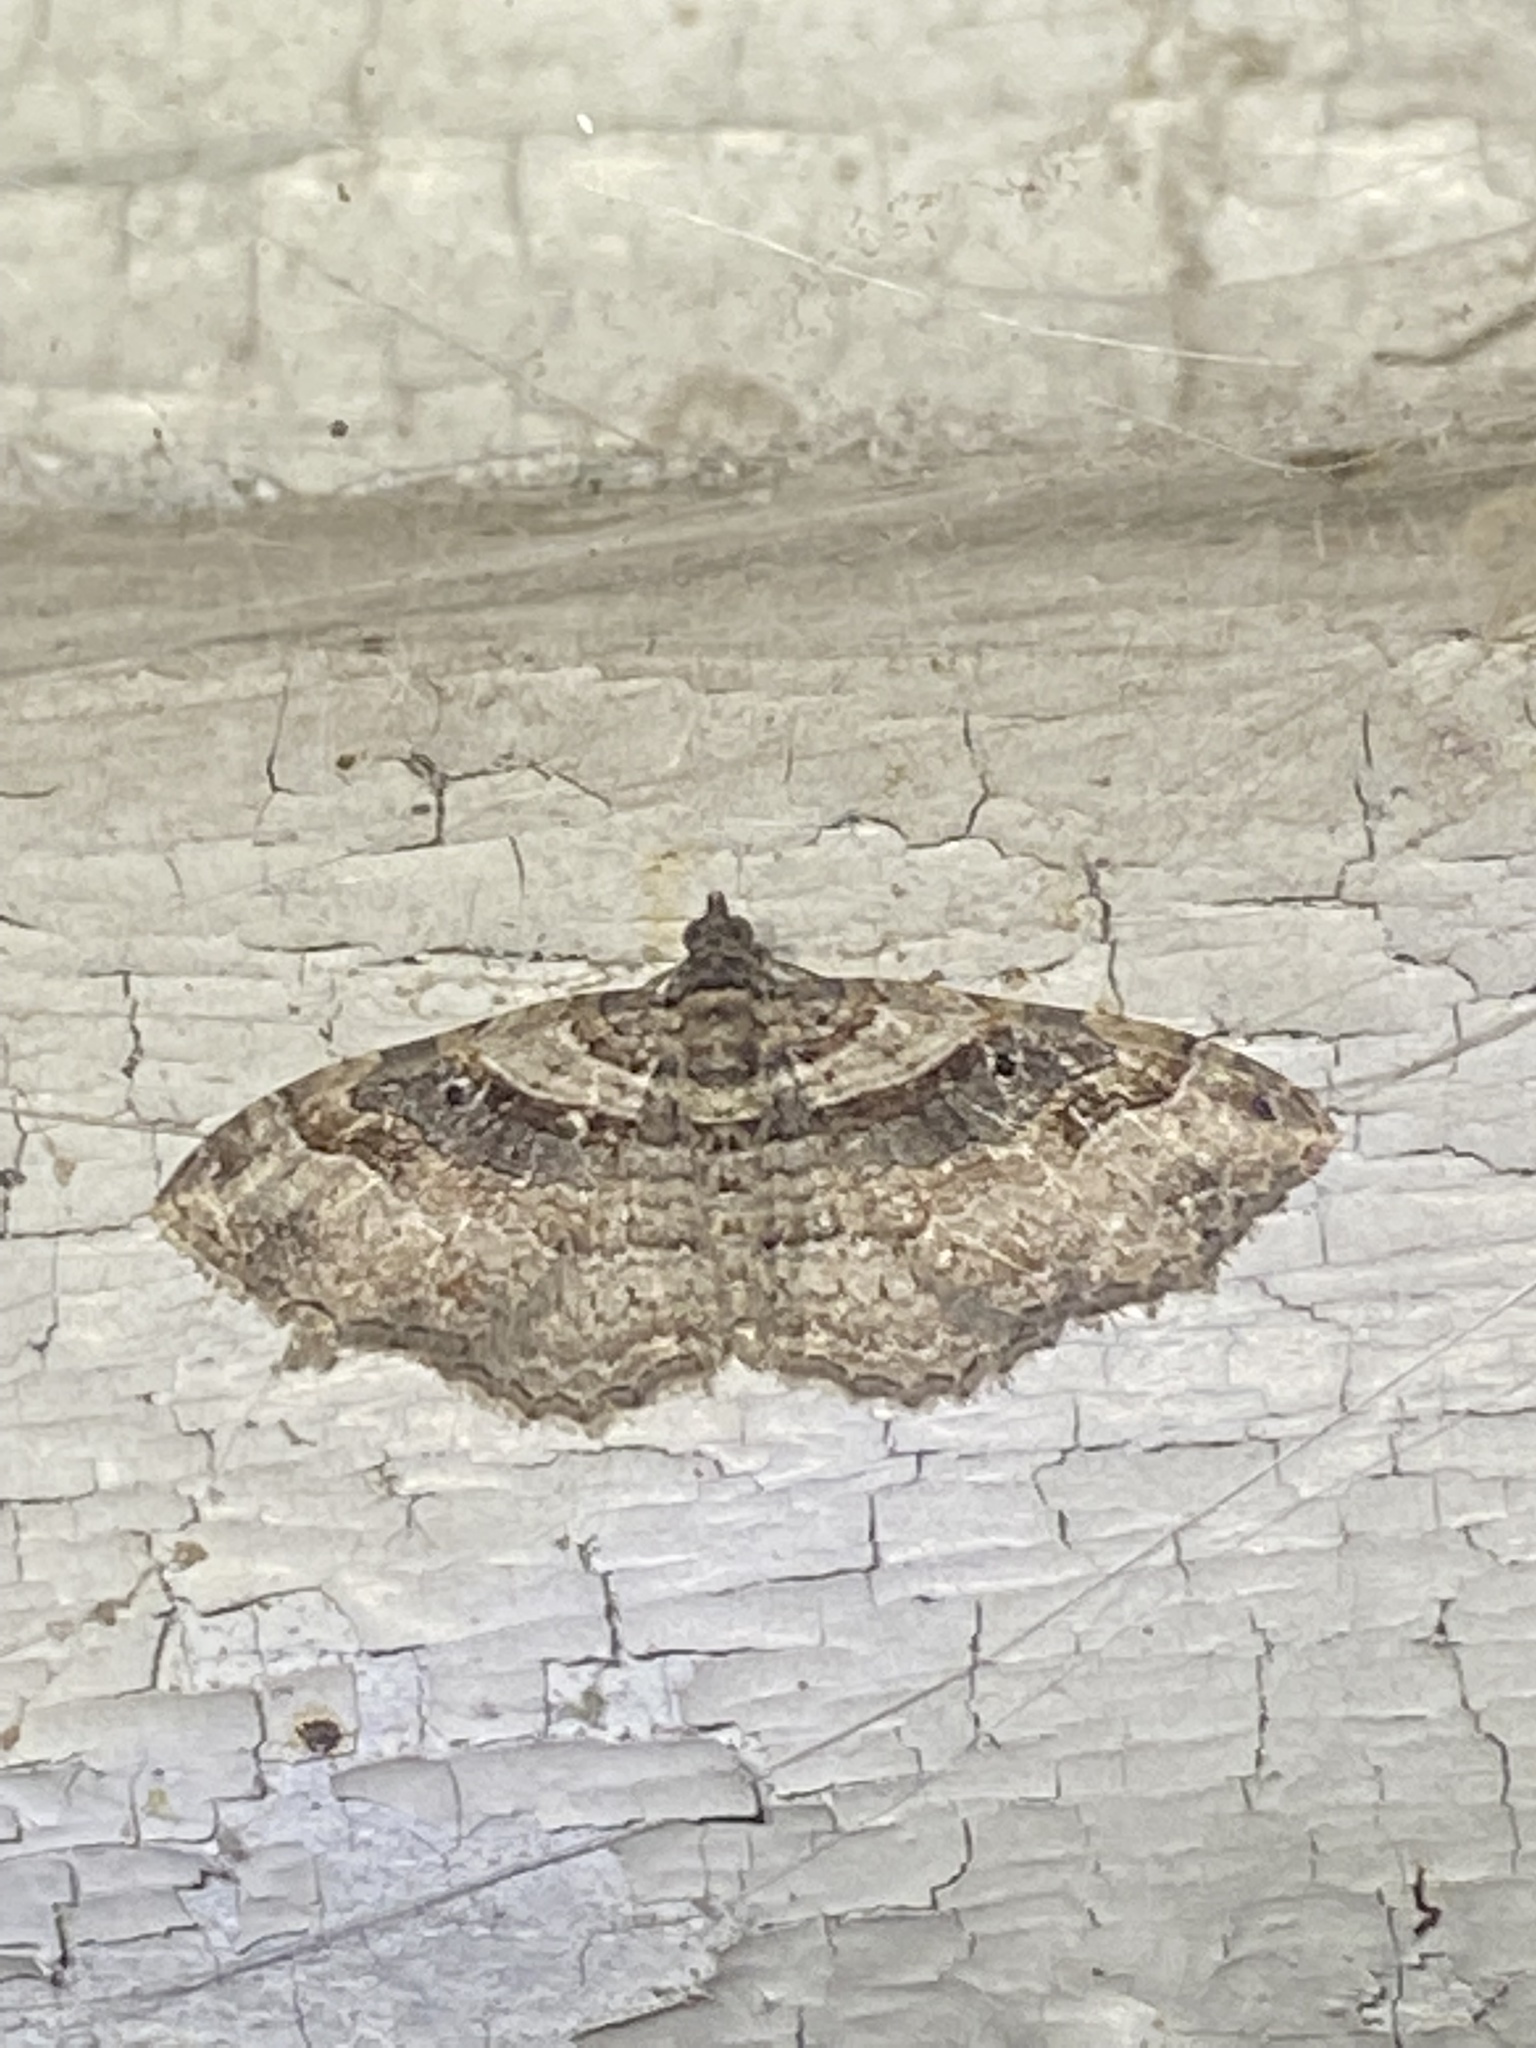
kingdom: Animalia
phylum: Arthropoda
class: Insecta
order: Lepidoptera
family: Geometridae
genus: Costaconvexa
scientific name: Costaconvexa centrostrigaria
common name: Bent-line carpet
